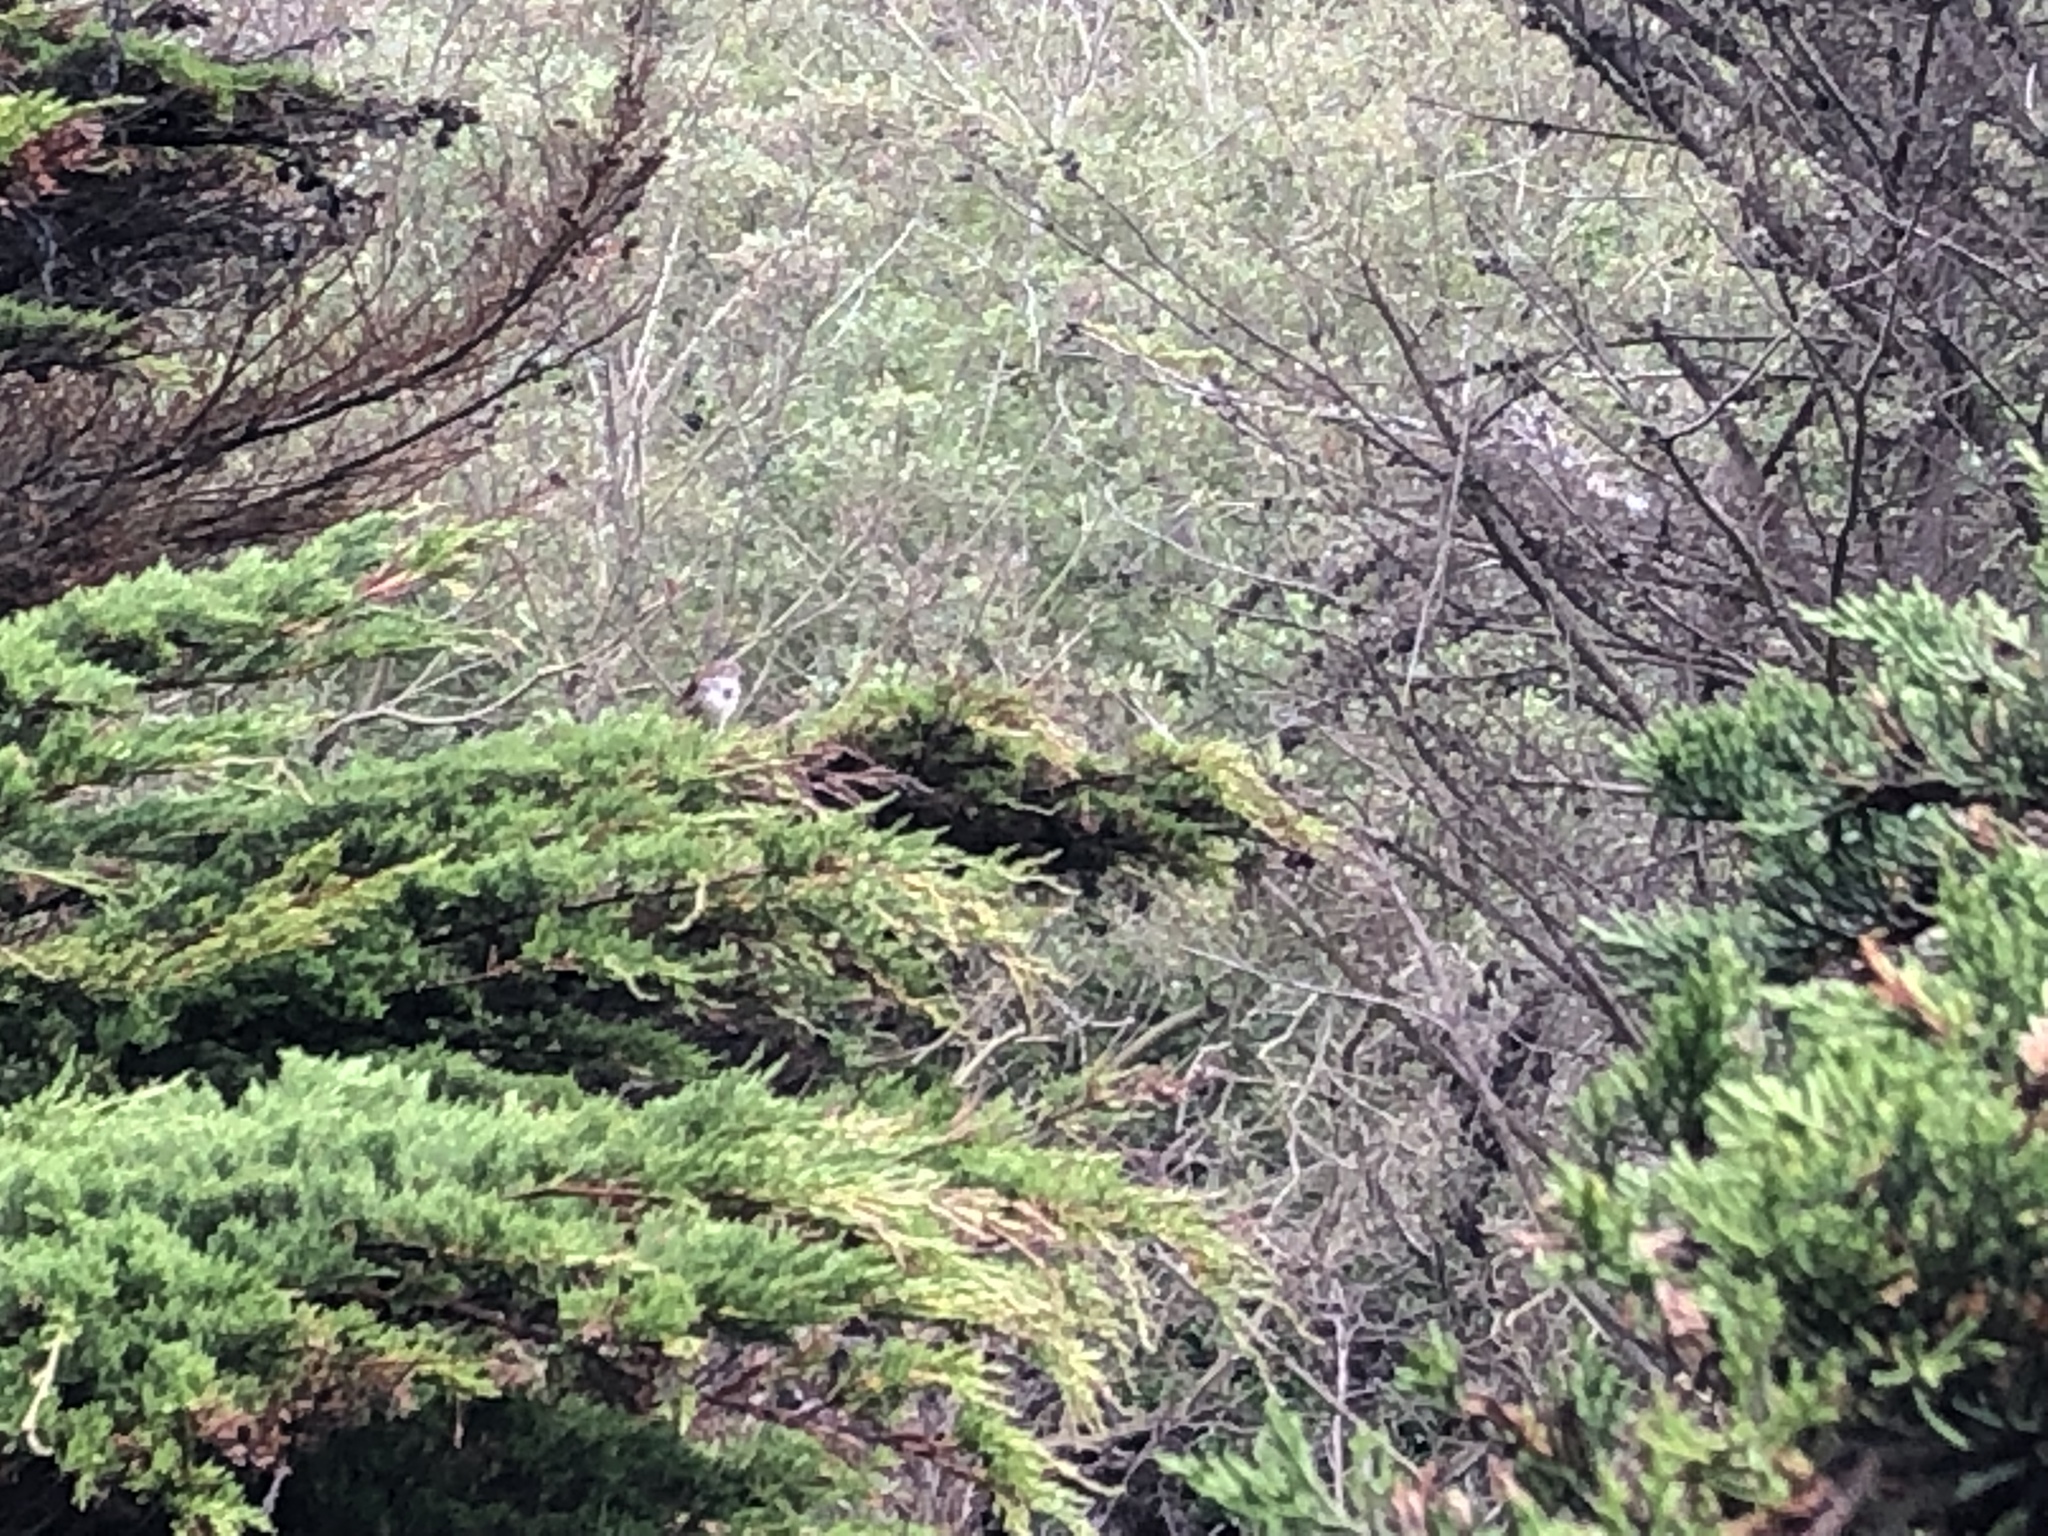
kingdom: Animalia
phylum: Chordata
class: Aves
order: Passeriformes
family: Passerellidae
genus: Melospiza
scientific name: Melospiza melodia
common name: Song sparrow
